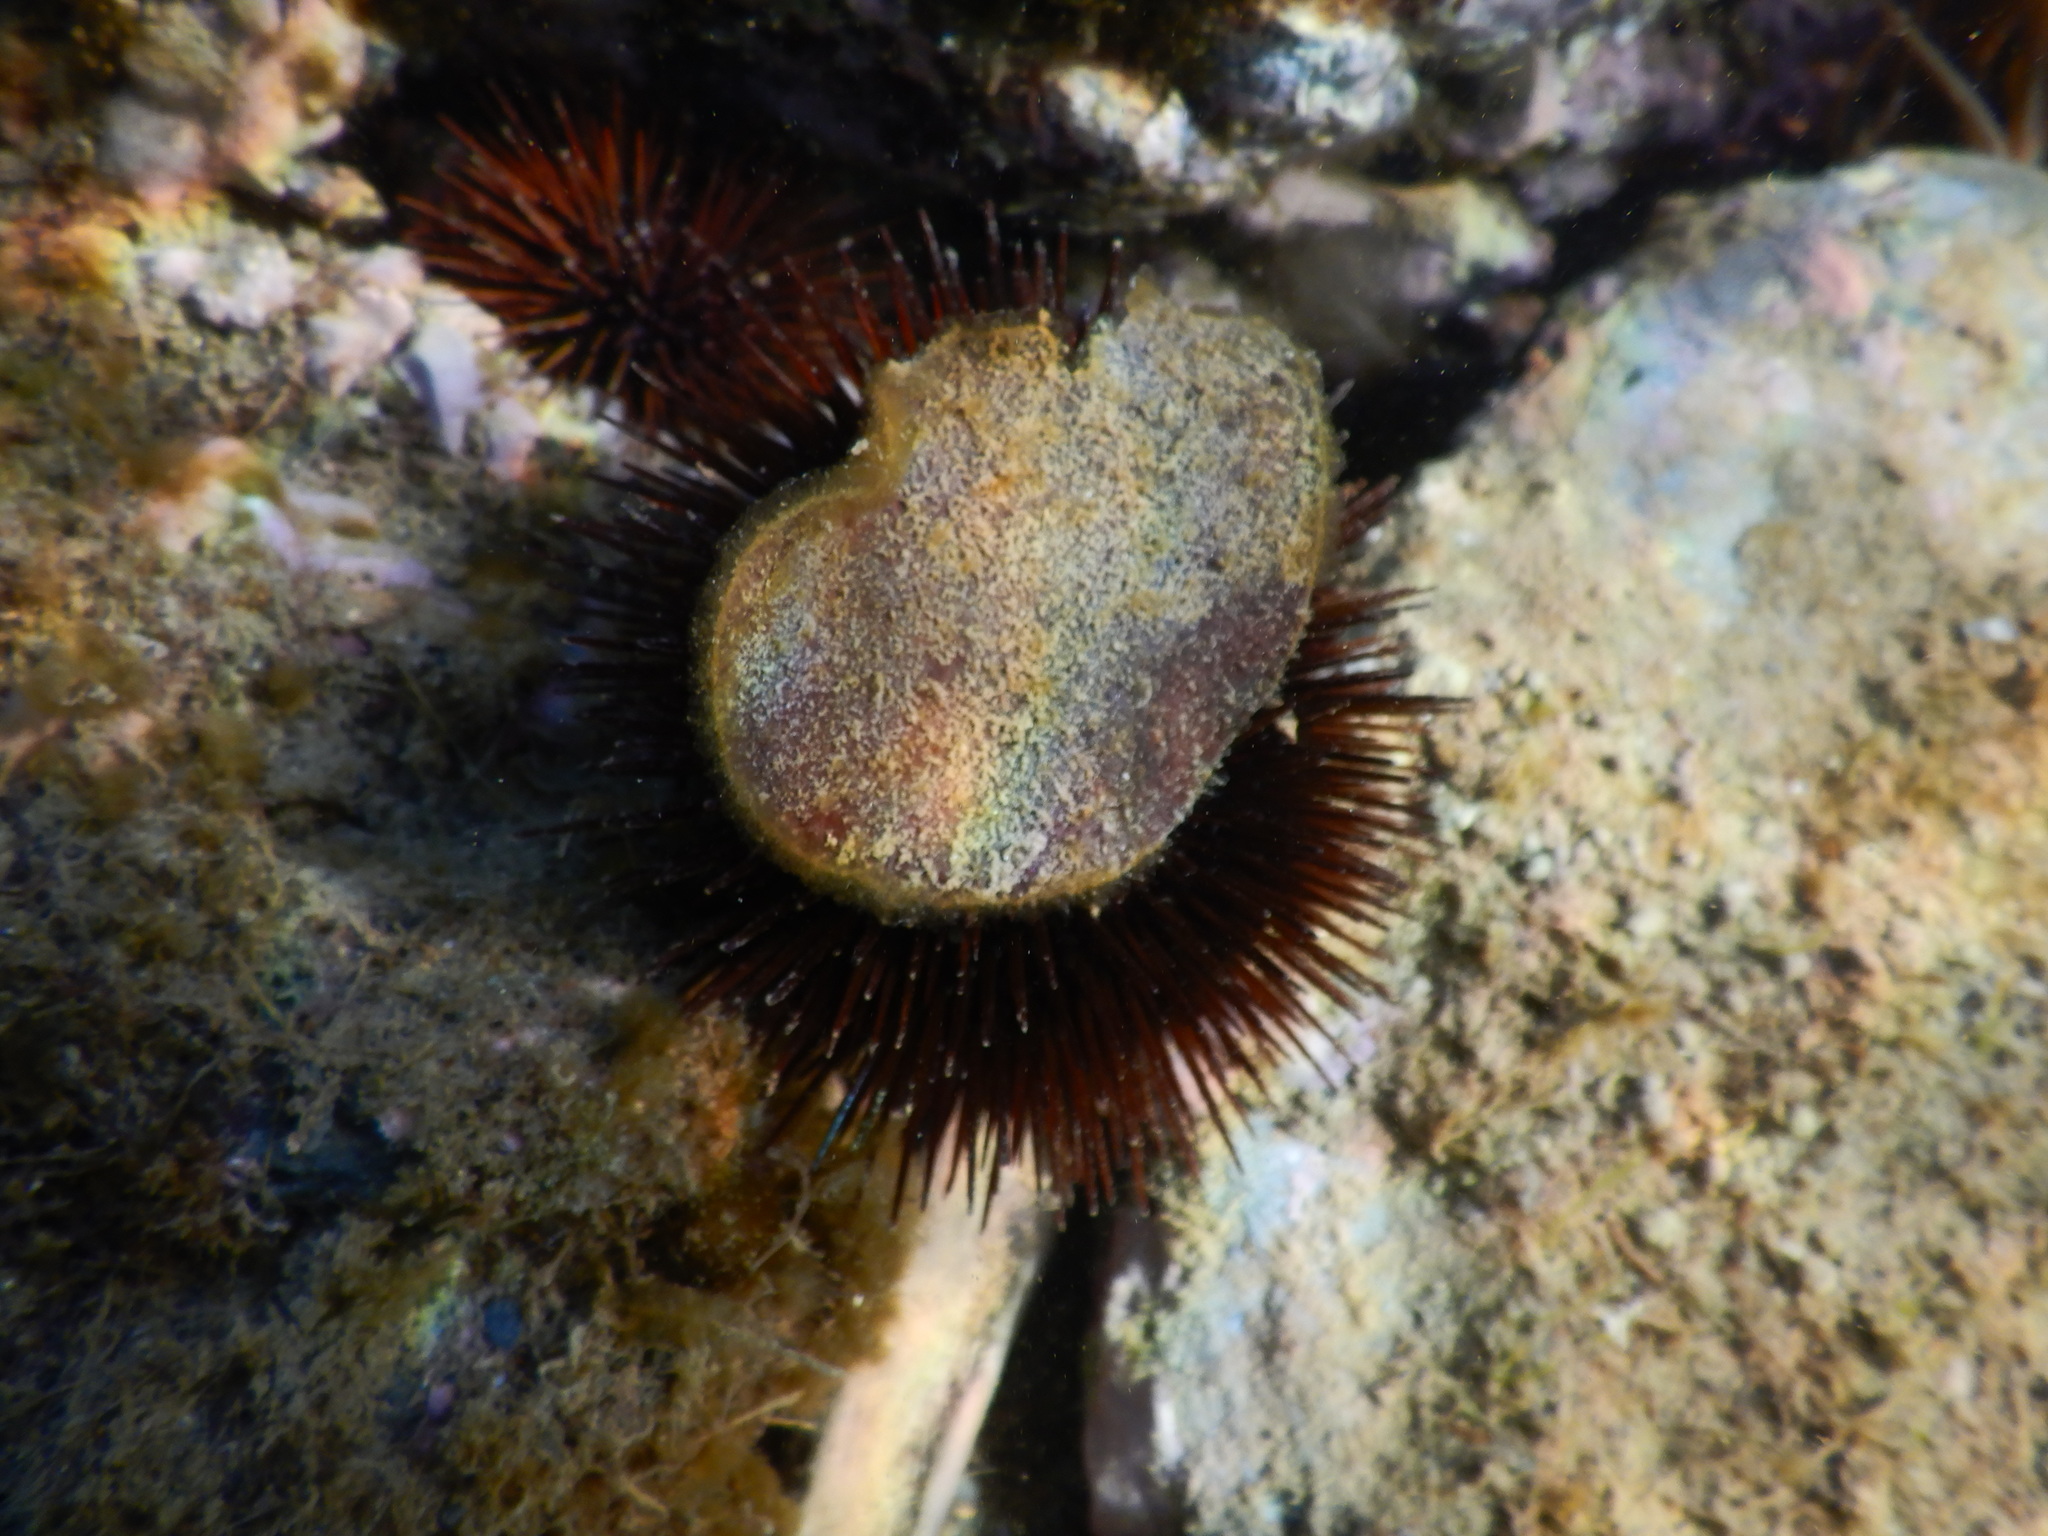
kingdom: Animalia
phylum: Echinodermata
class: Echinoidea
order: Camarodonta
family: Parechinidae
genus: Paracentrotus
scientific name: Paracentrotus lividus
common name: Purple sea urchin
